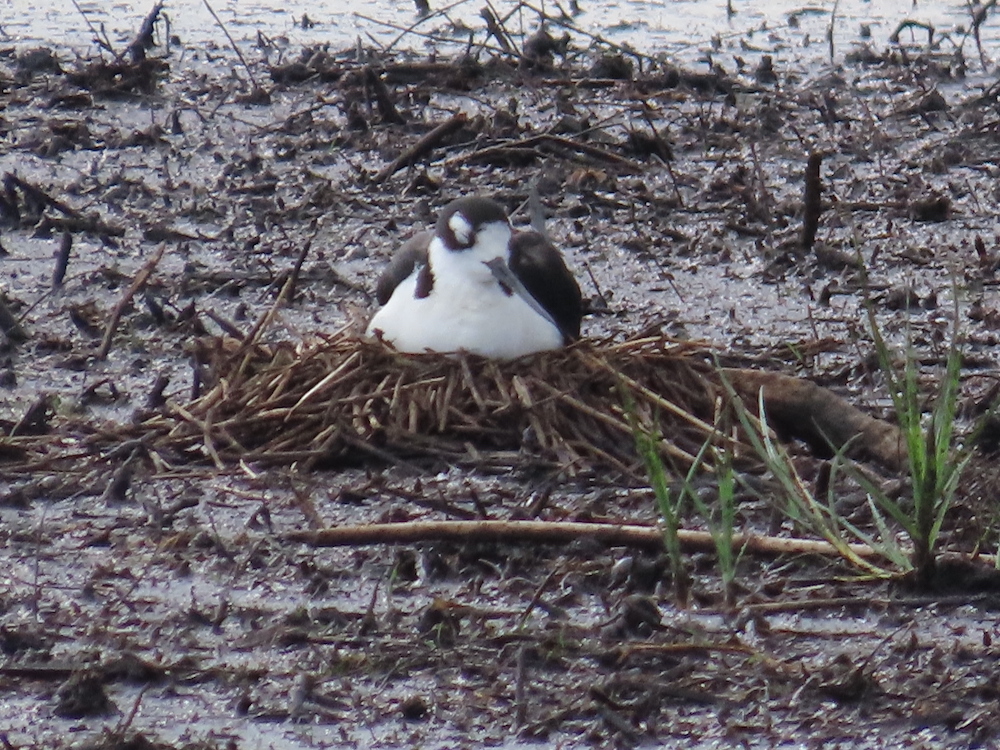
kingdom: Animalia
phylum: Chordata
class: Aves
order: Charadriiformes
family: Recurvirostridae
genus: Himantopus
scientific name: Himantopus mexicanus
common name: Black-necked stilt
